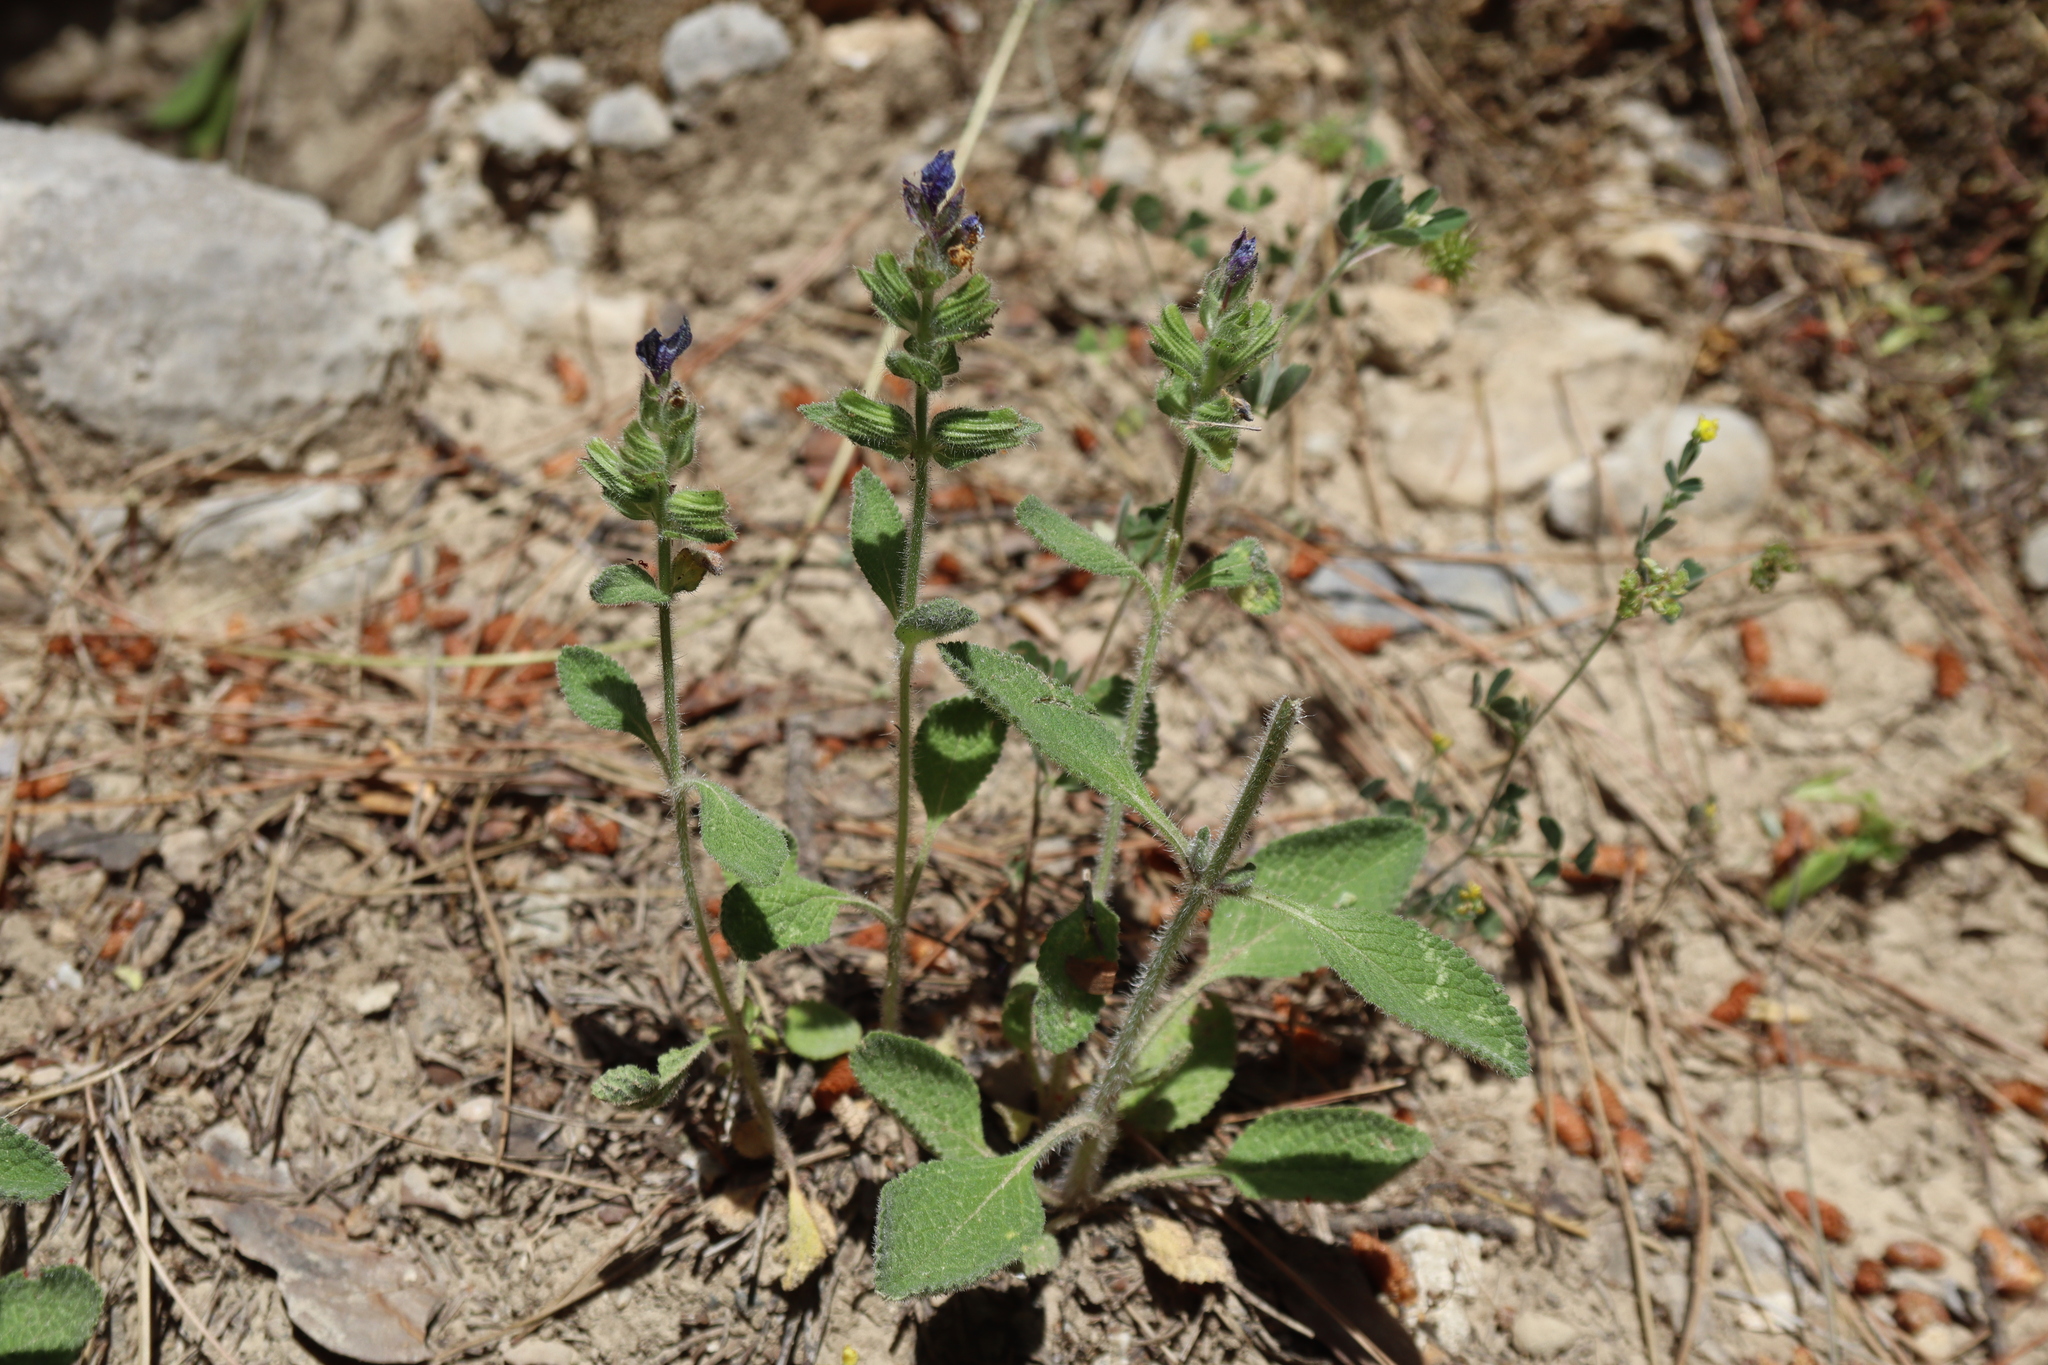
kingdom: Plantae
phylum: Tracheophyta
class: Magnoliopsida
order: Lamiales
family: Lamiaceae
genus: Salvia
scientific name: Salvia viridis
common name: Annual clary
